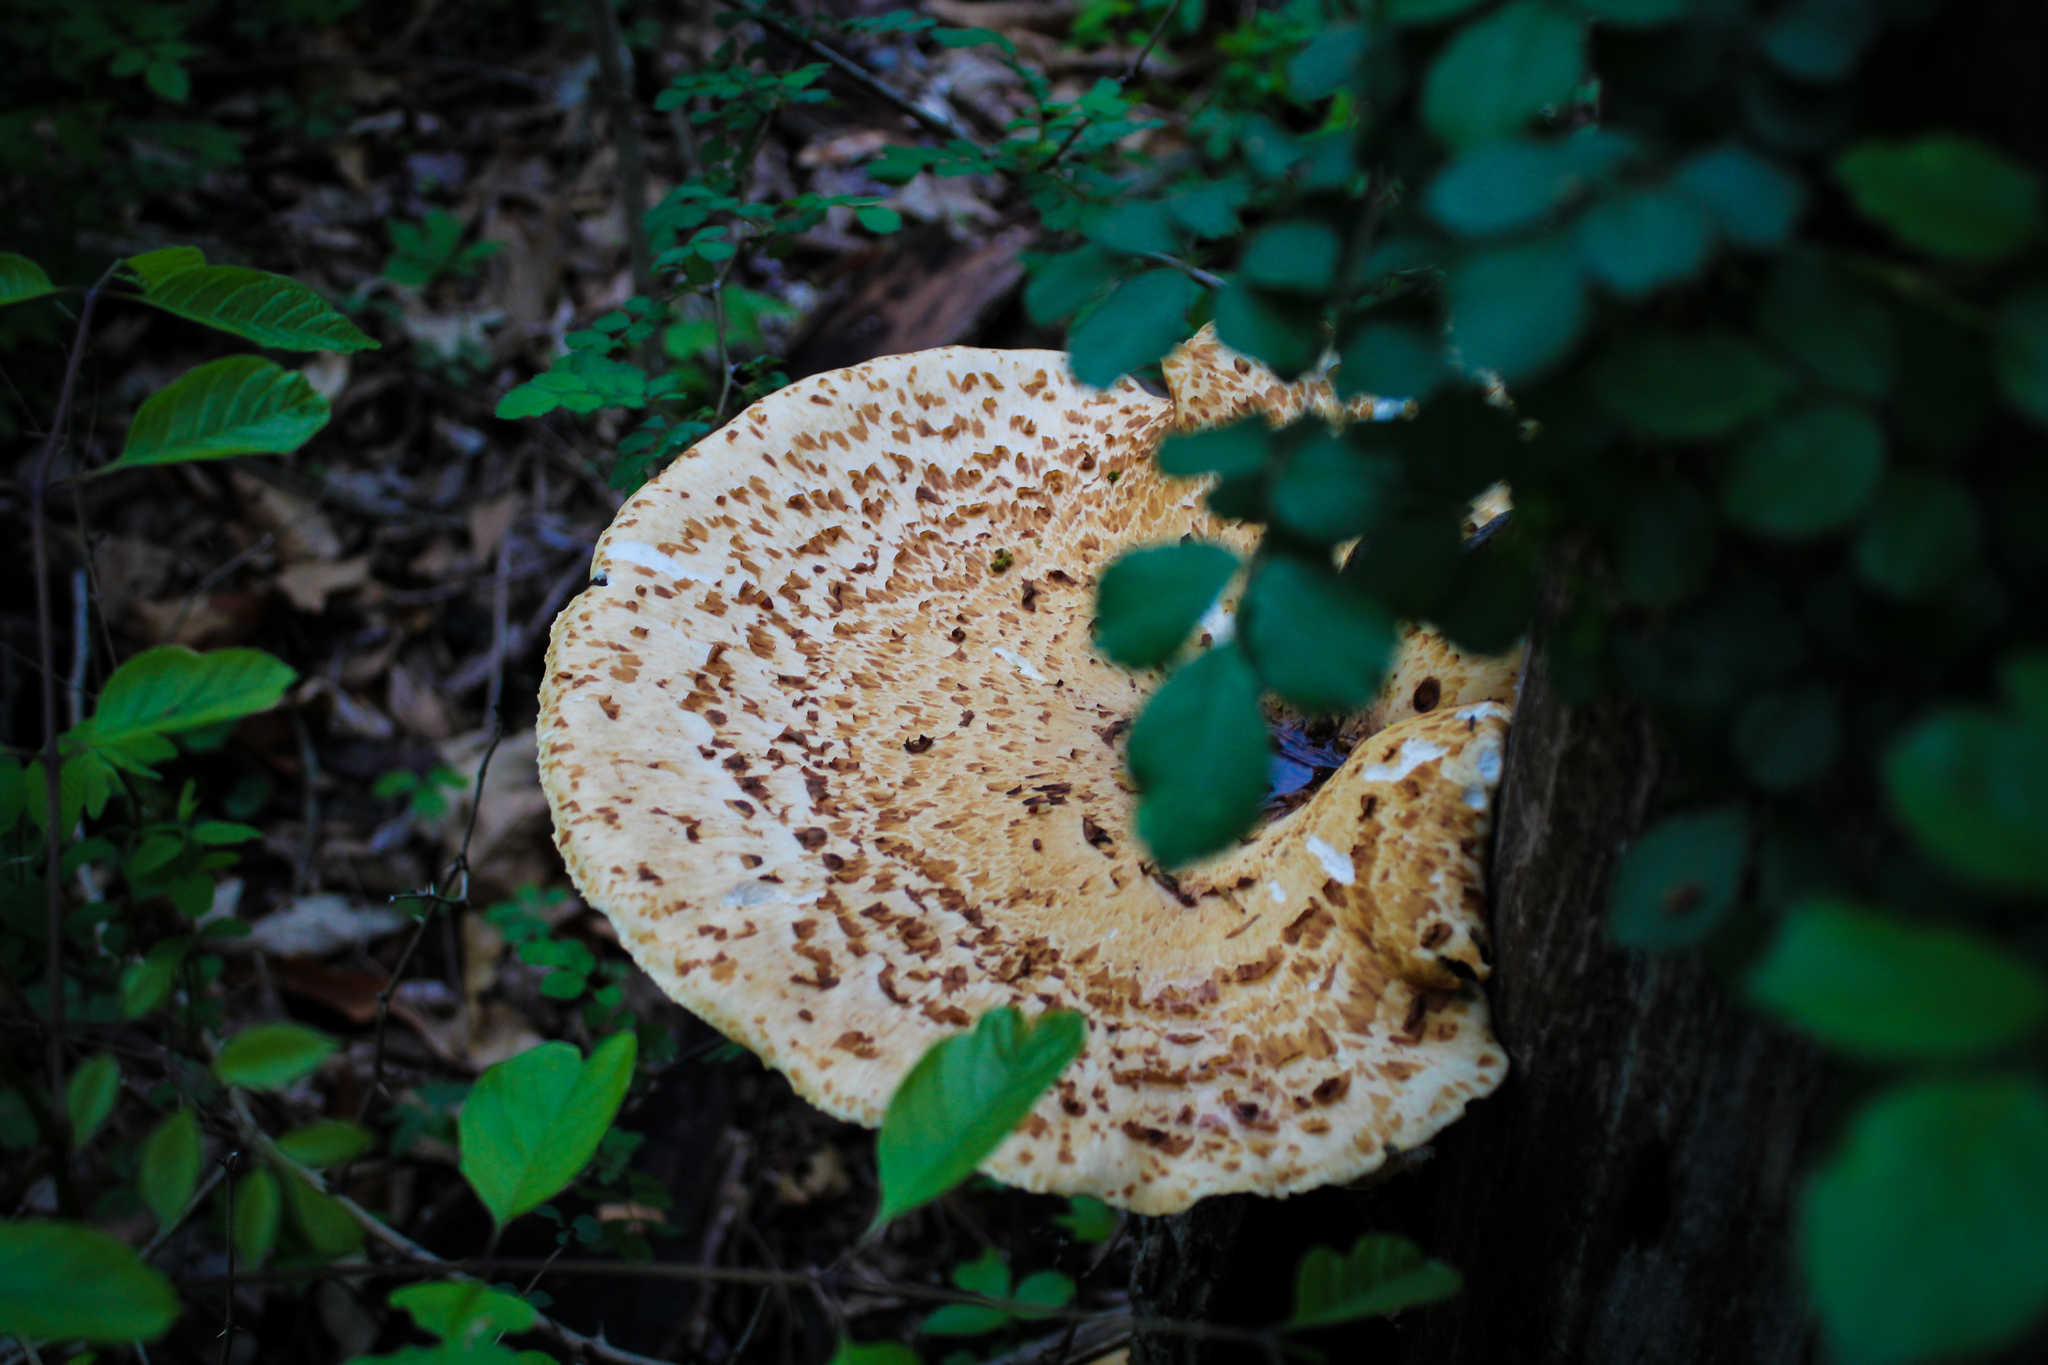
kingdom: Fungi
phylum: Basidiomycota
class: Agaricomycetes
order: Polyporales
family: Polyporaceae
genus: Cerioporus
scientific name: Cerioporus squamosus
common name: Dryad's saddle
